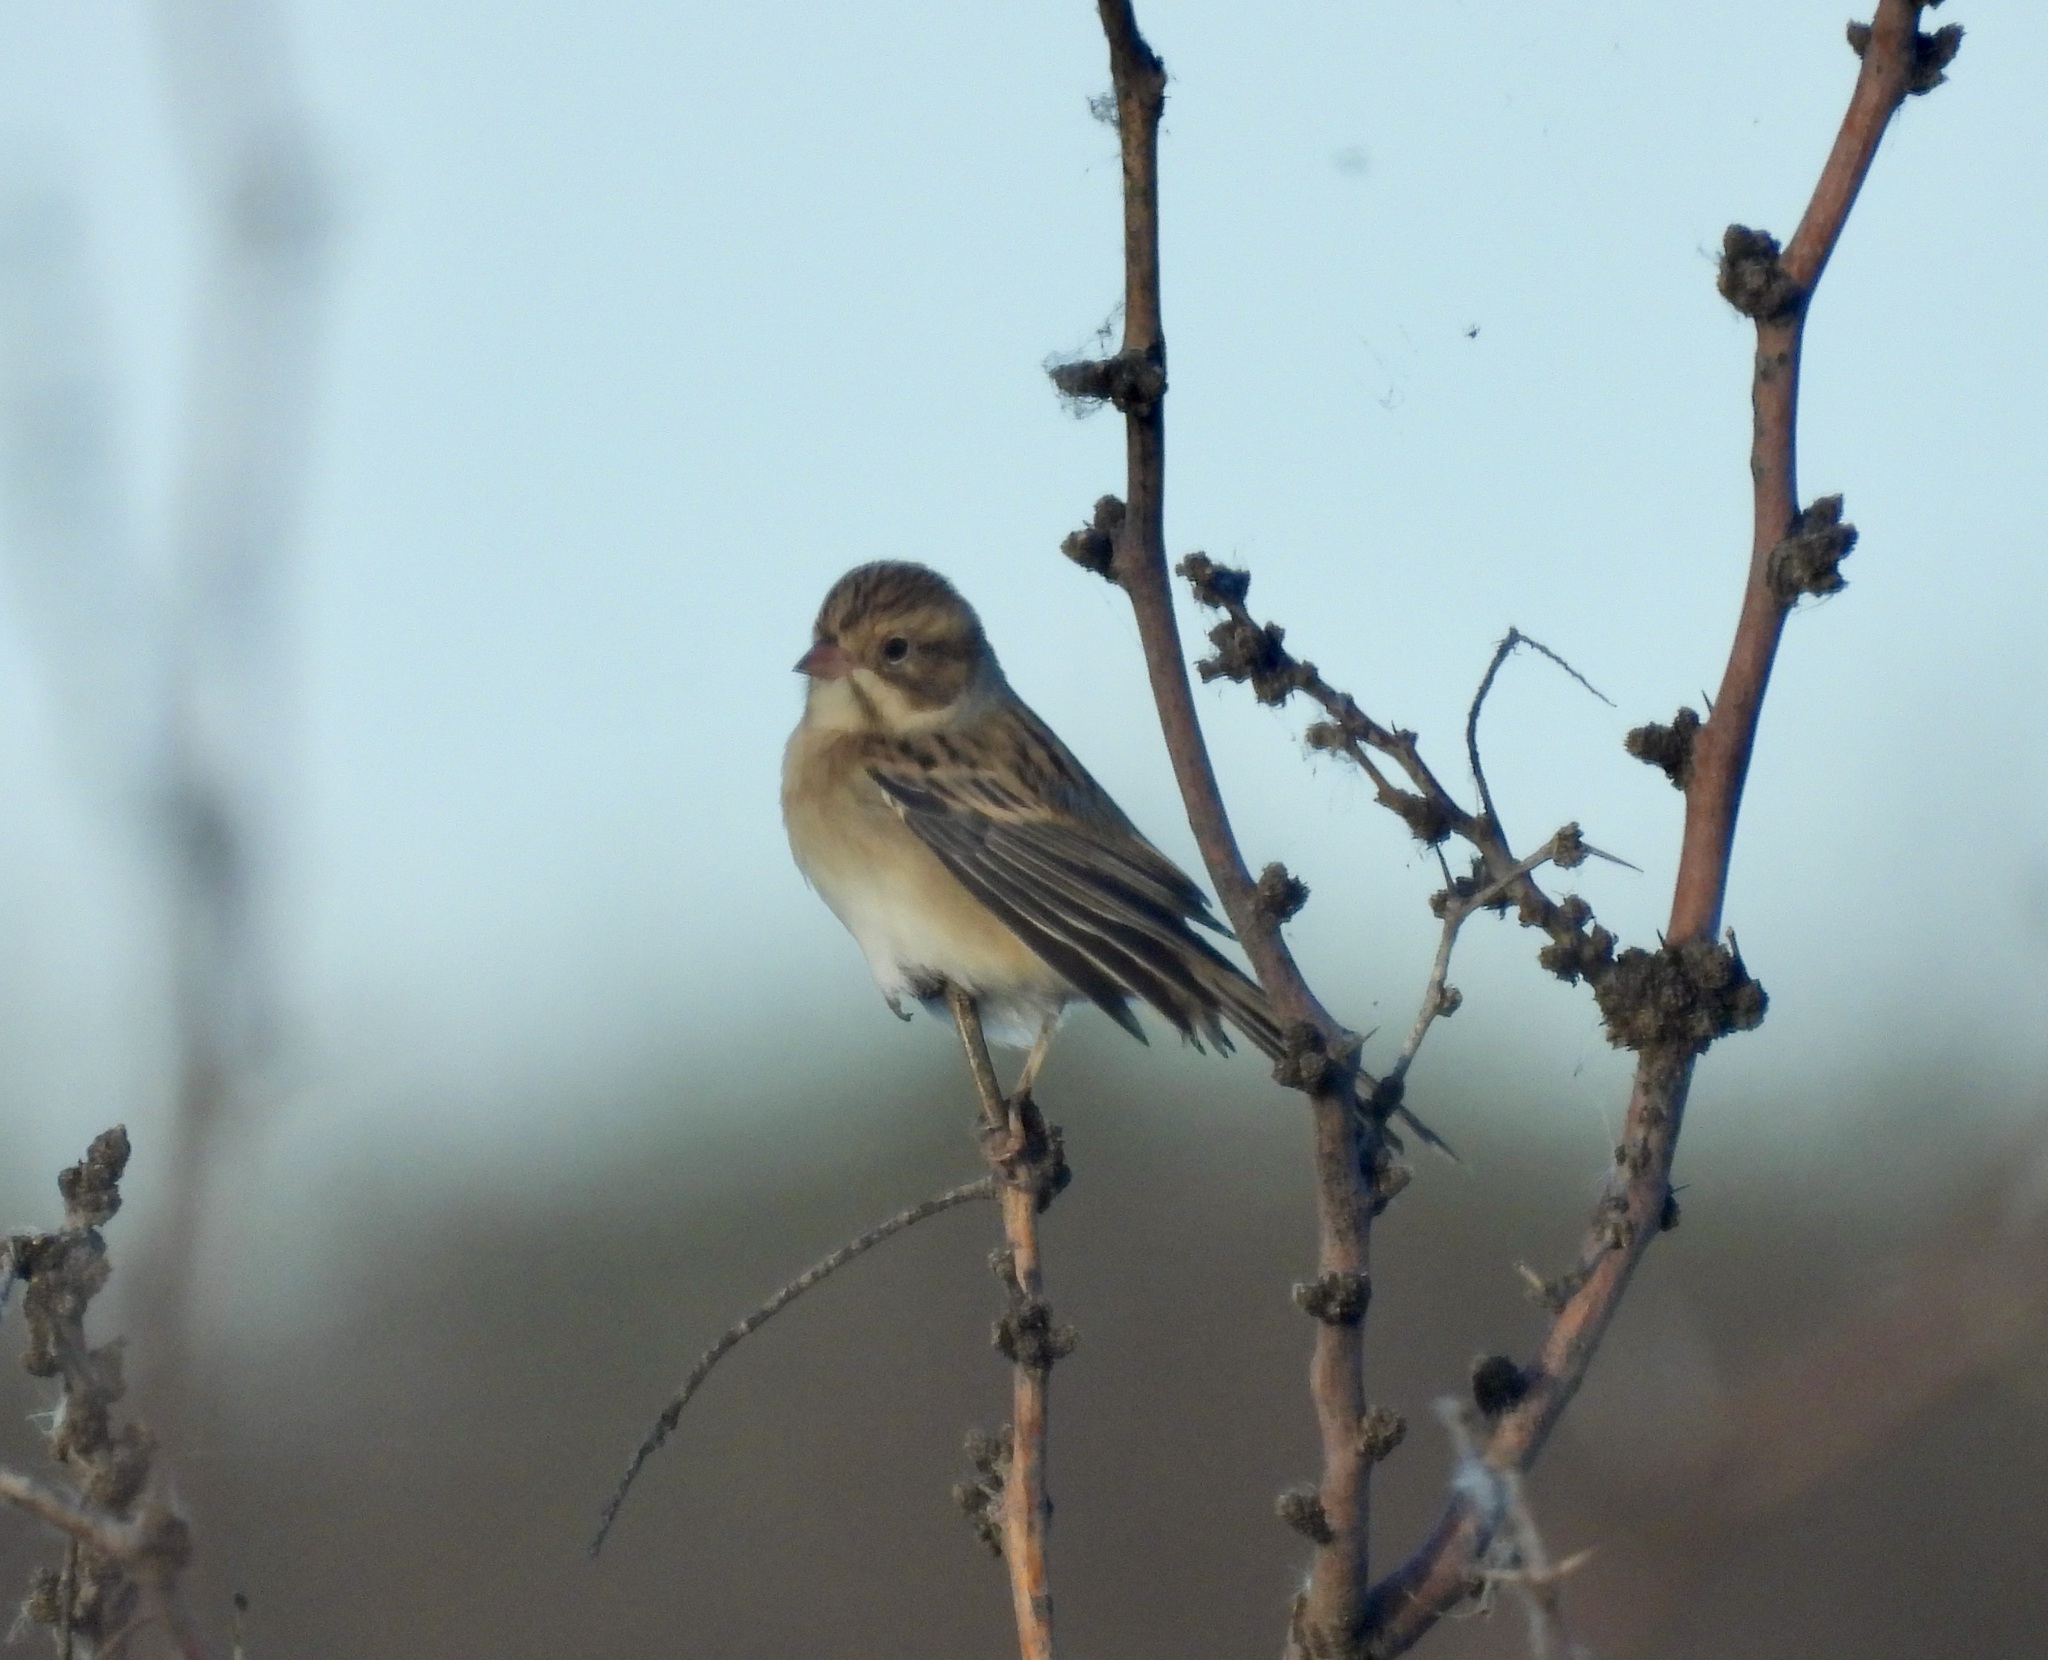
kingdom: Animalia
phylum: Chordata
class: Aves
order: Passeriformes
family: Passerellidae
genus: Spizella
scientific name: Spizella pallida
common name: Clay-colored sparrow
